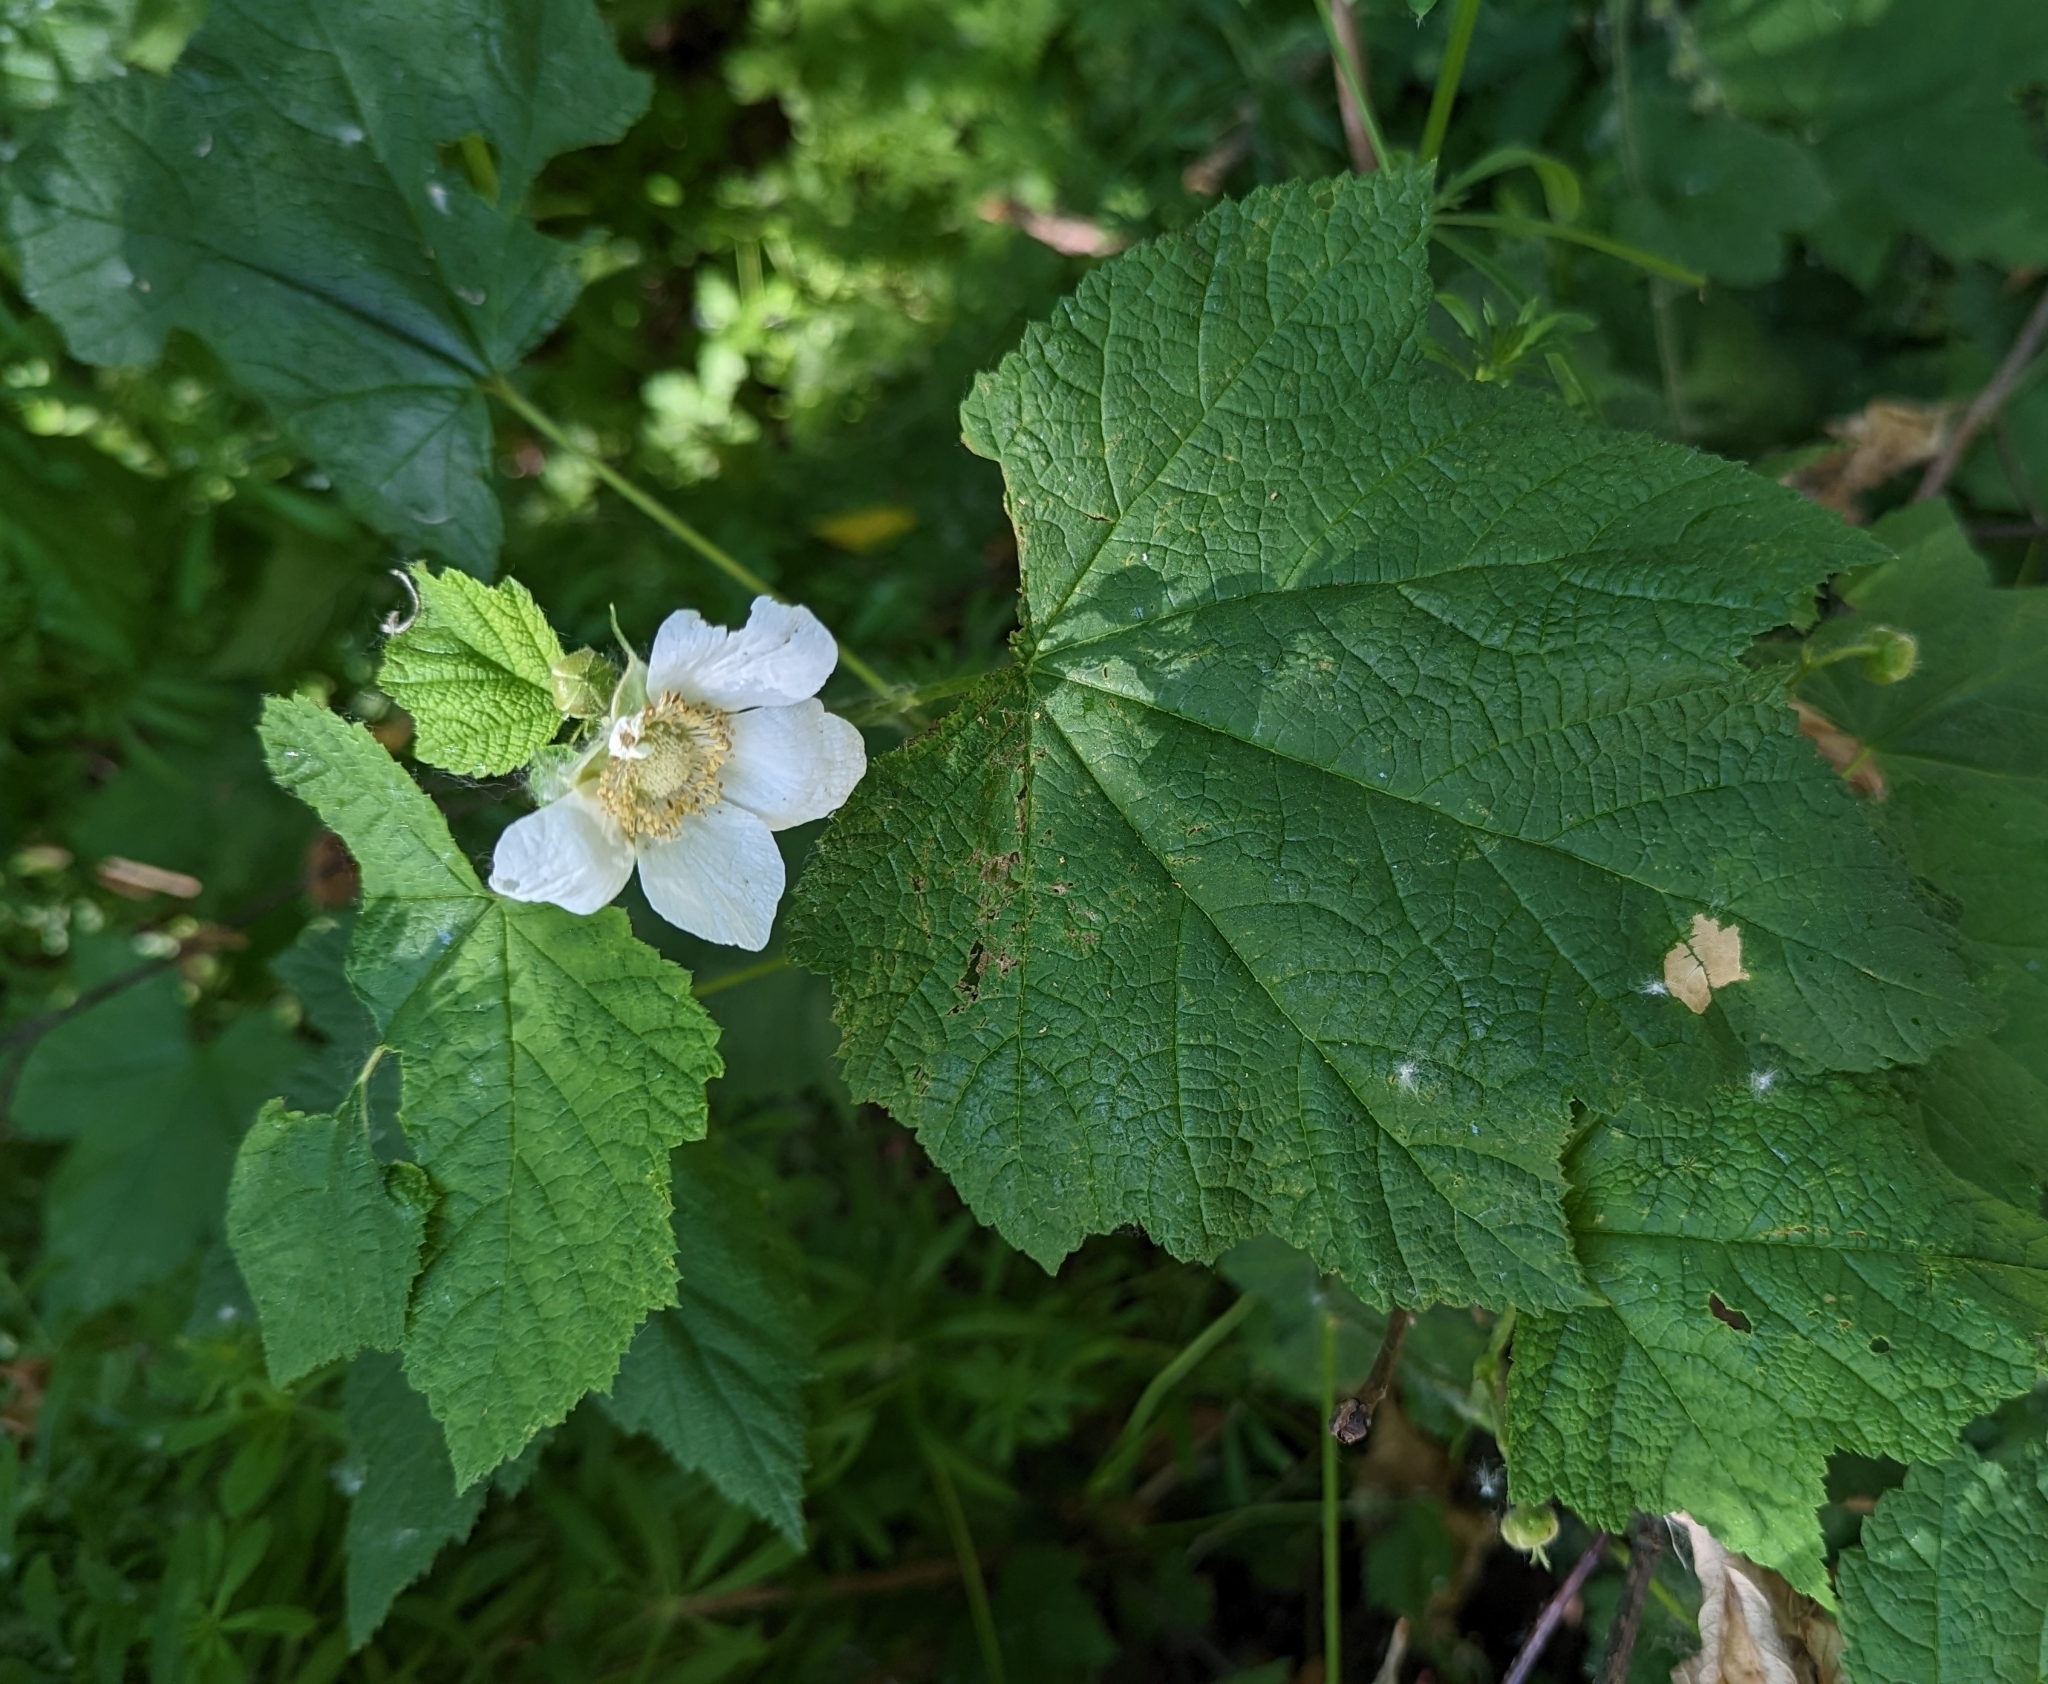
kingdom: Plantae
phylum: Tracheophyta
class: Magnoliopsida
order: Rosales
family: Rosaceae
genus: Rubus
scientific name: Rubus parviflorus
